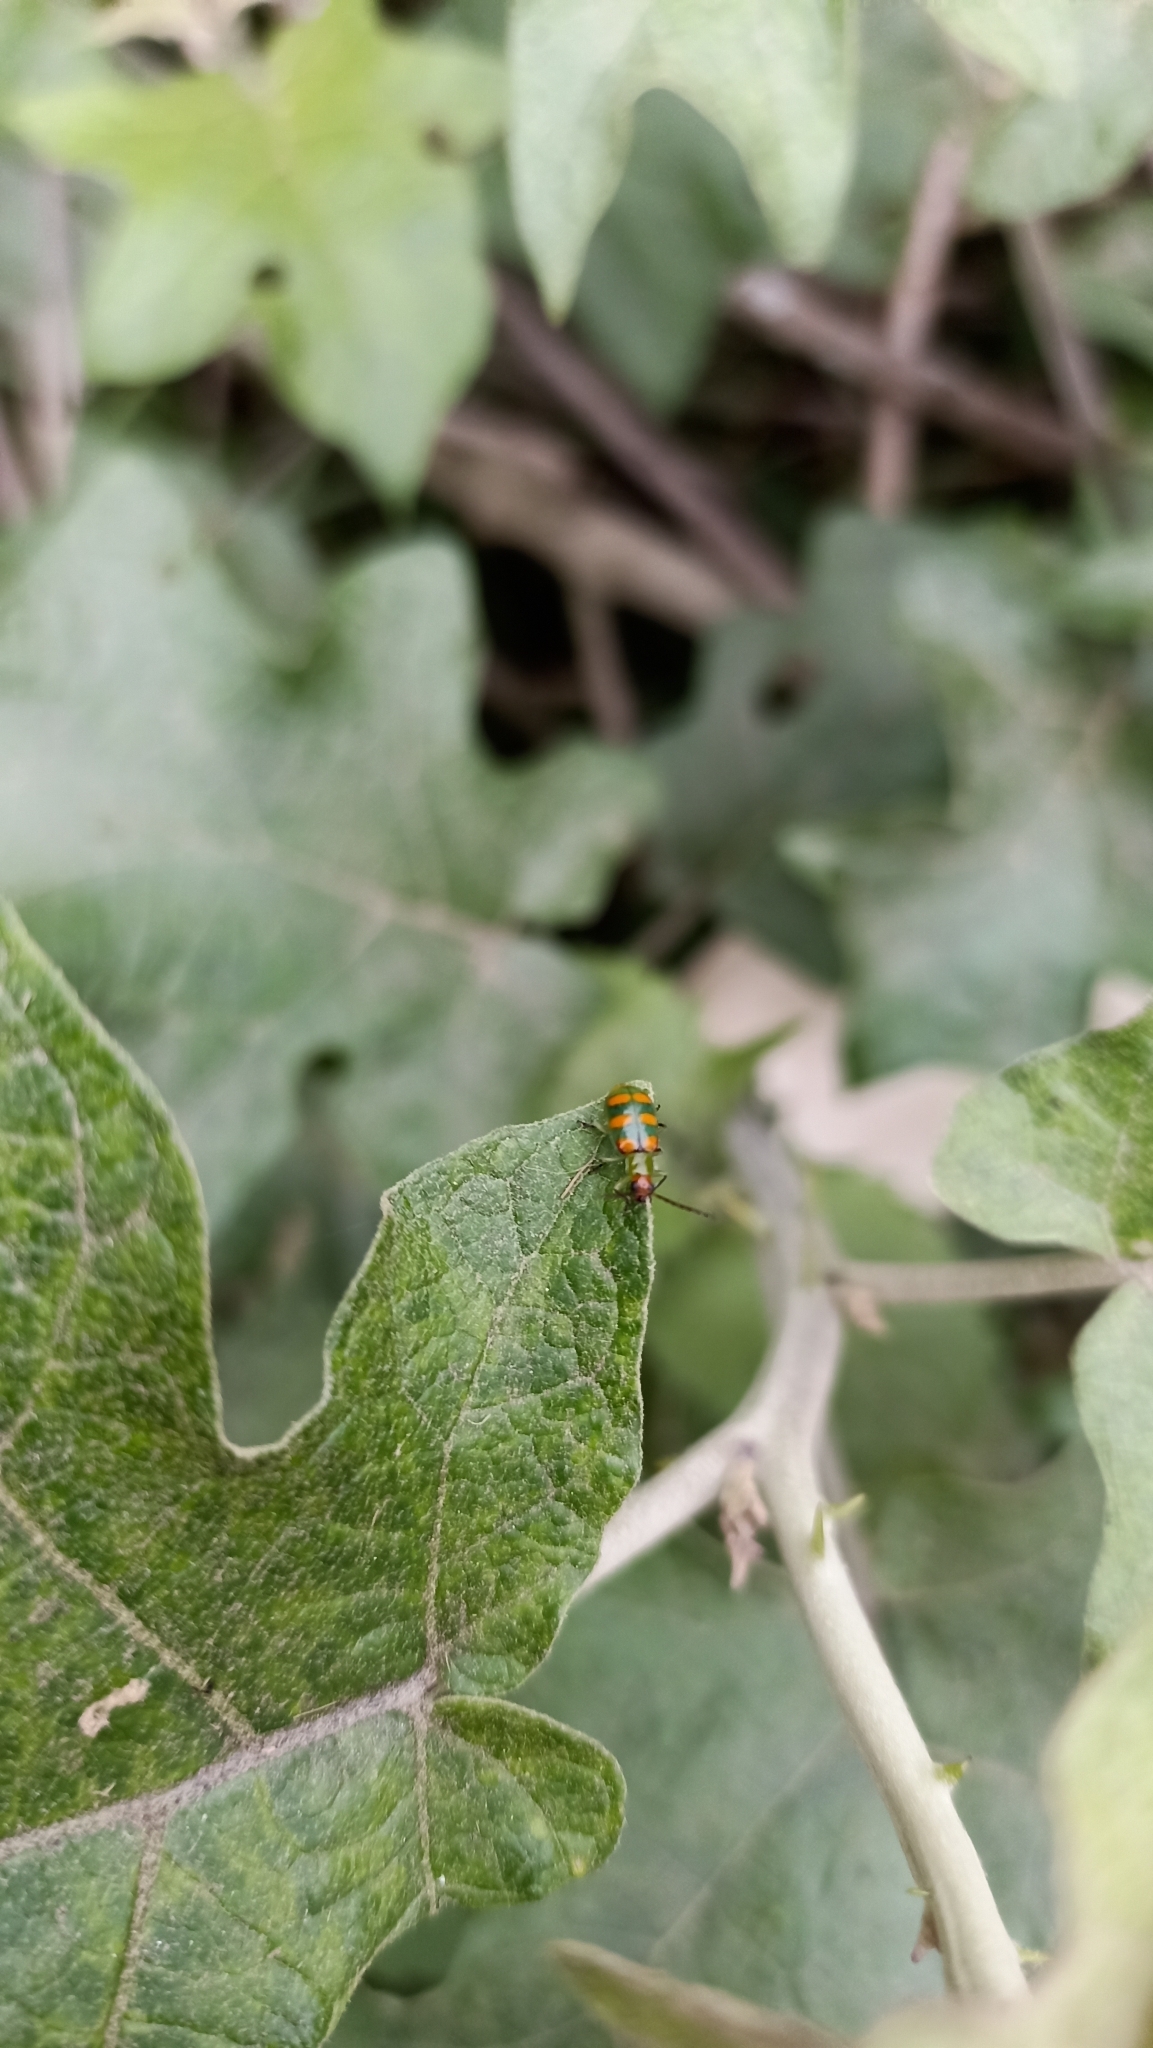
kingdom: Animalia
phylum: Arthropoda
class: Insecta
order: Coleoptera
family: Chrysomelidae
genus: Diabrotica
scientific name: Diabrotica speciosa
